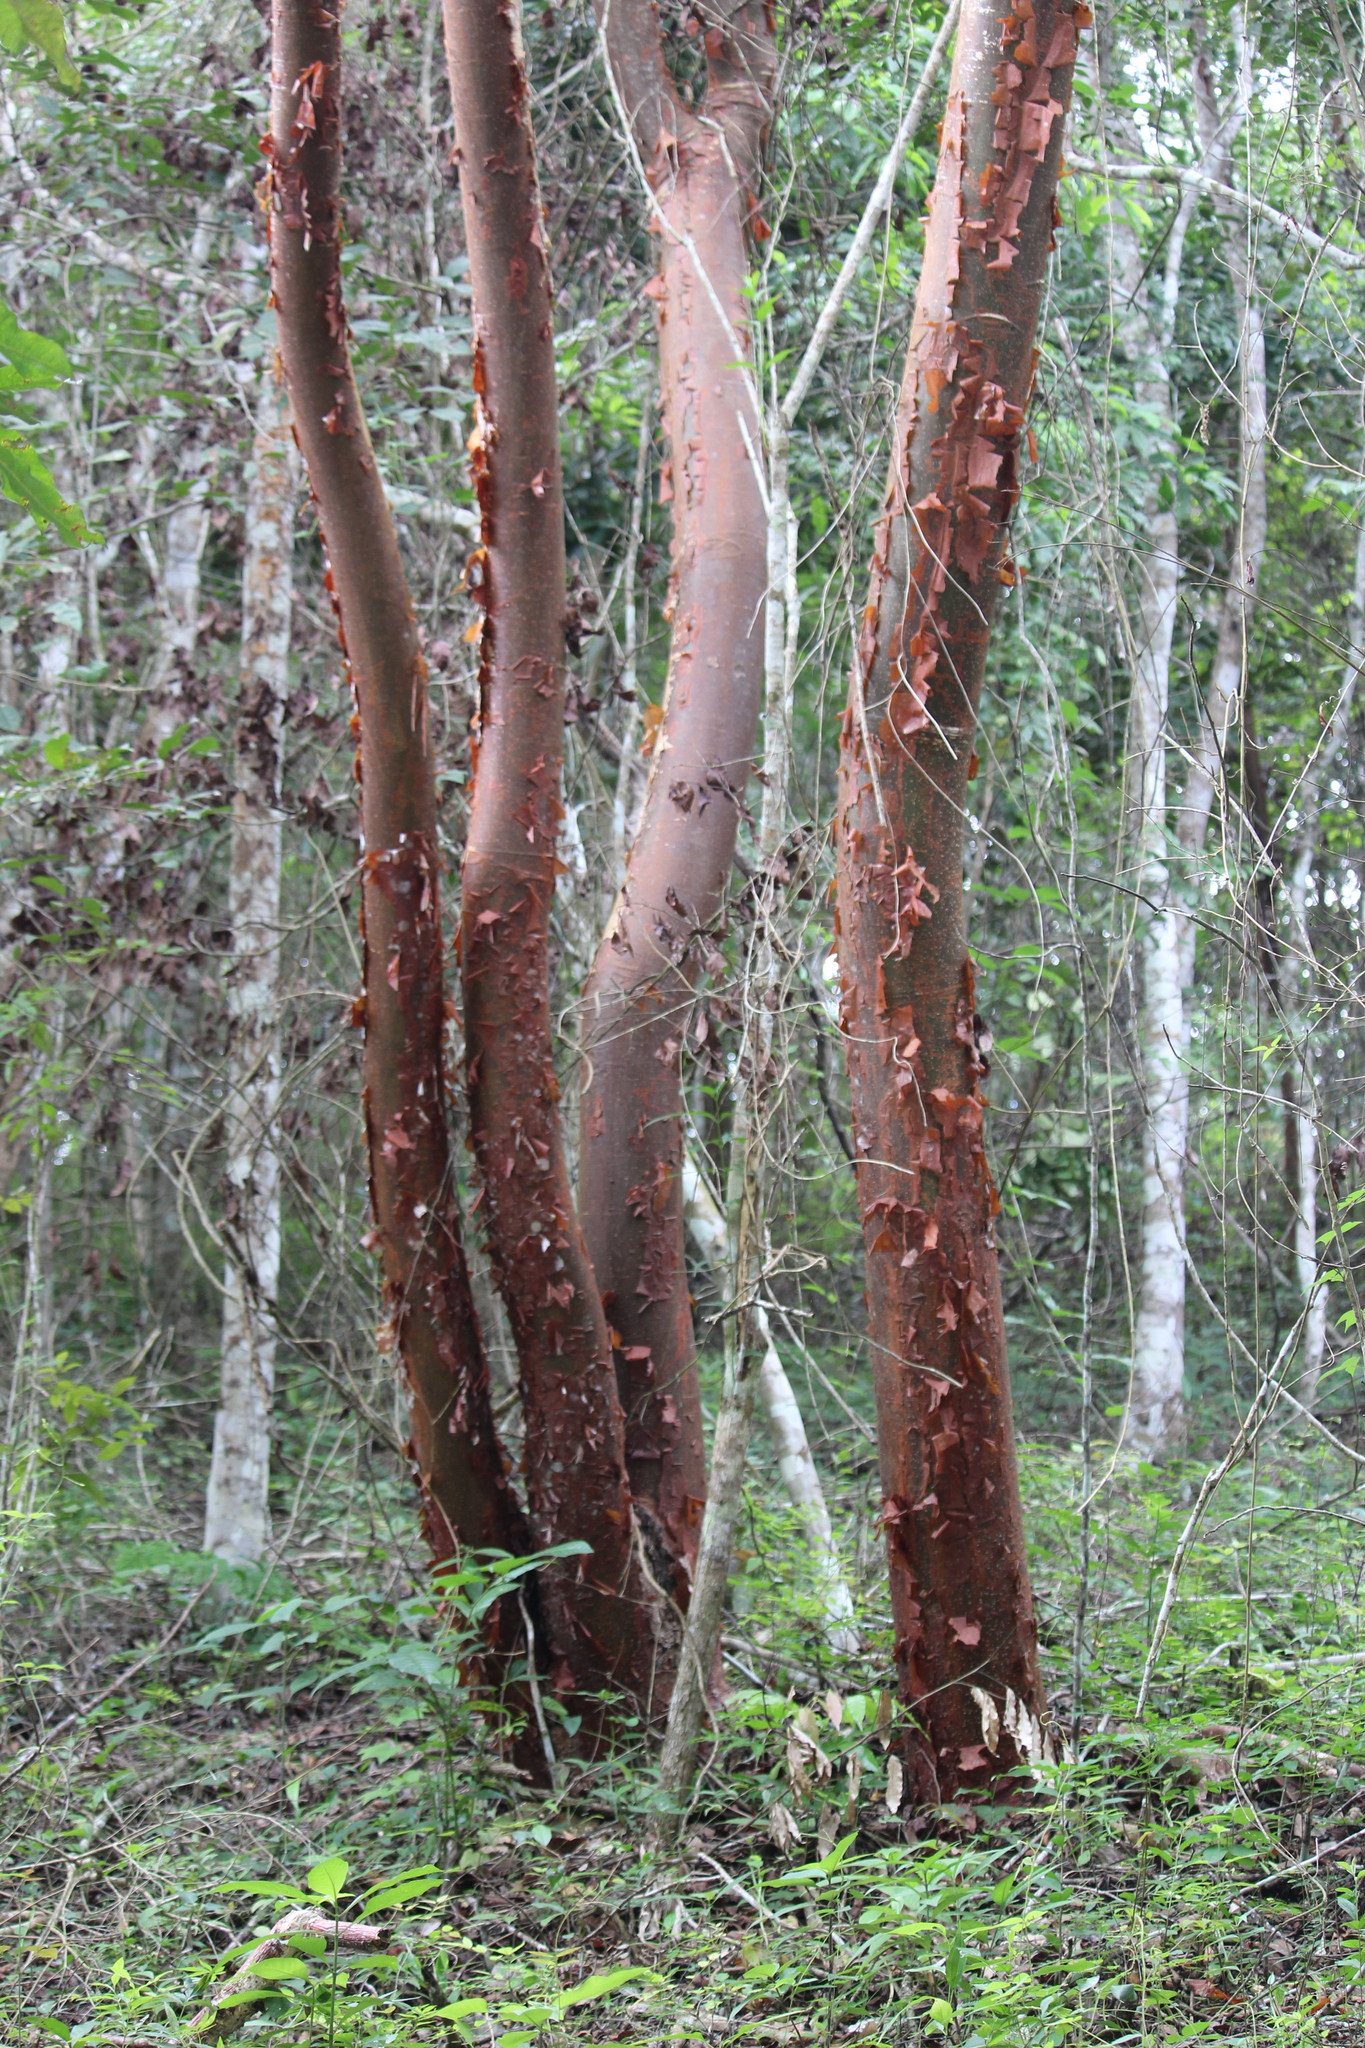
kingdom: Plantae
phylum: Tracheophyta
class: Magnoliopsida
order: Sapindales
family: Burseraceae
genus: Bursera
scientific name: Bursera simaruba
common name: Turpentine tree
